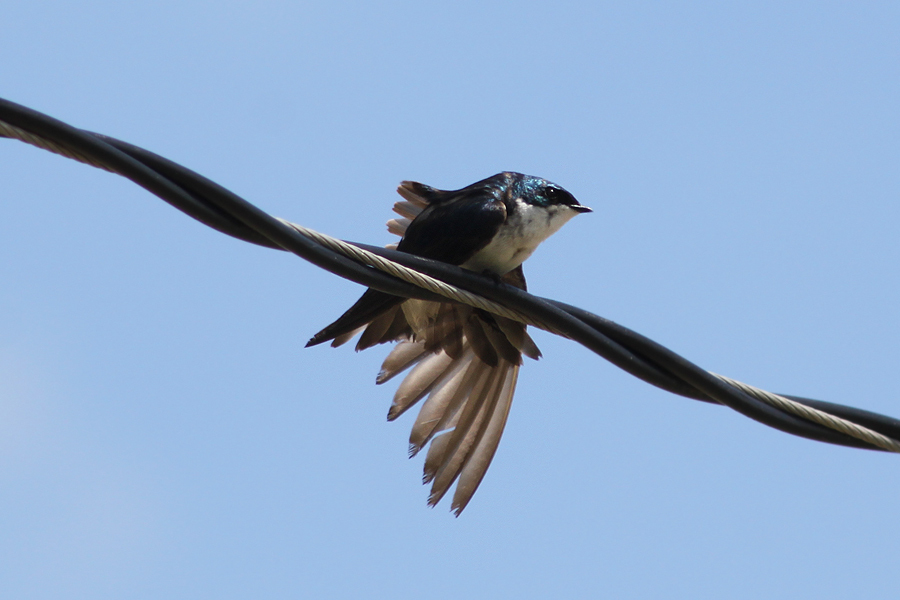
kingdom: Animalia
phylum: Chordata
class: Aves
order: Passeriformes
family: Hirundinidae
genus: Tachycineta
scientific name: Tachycineta bicolor
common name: Tree swallow
